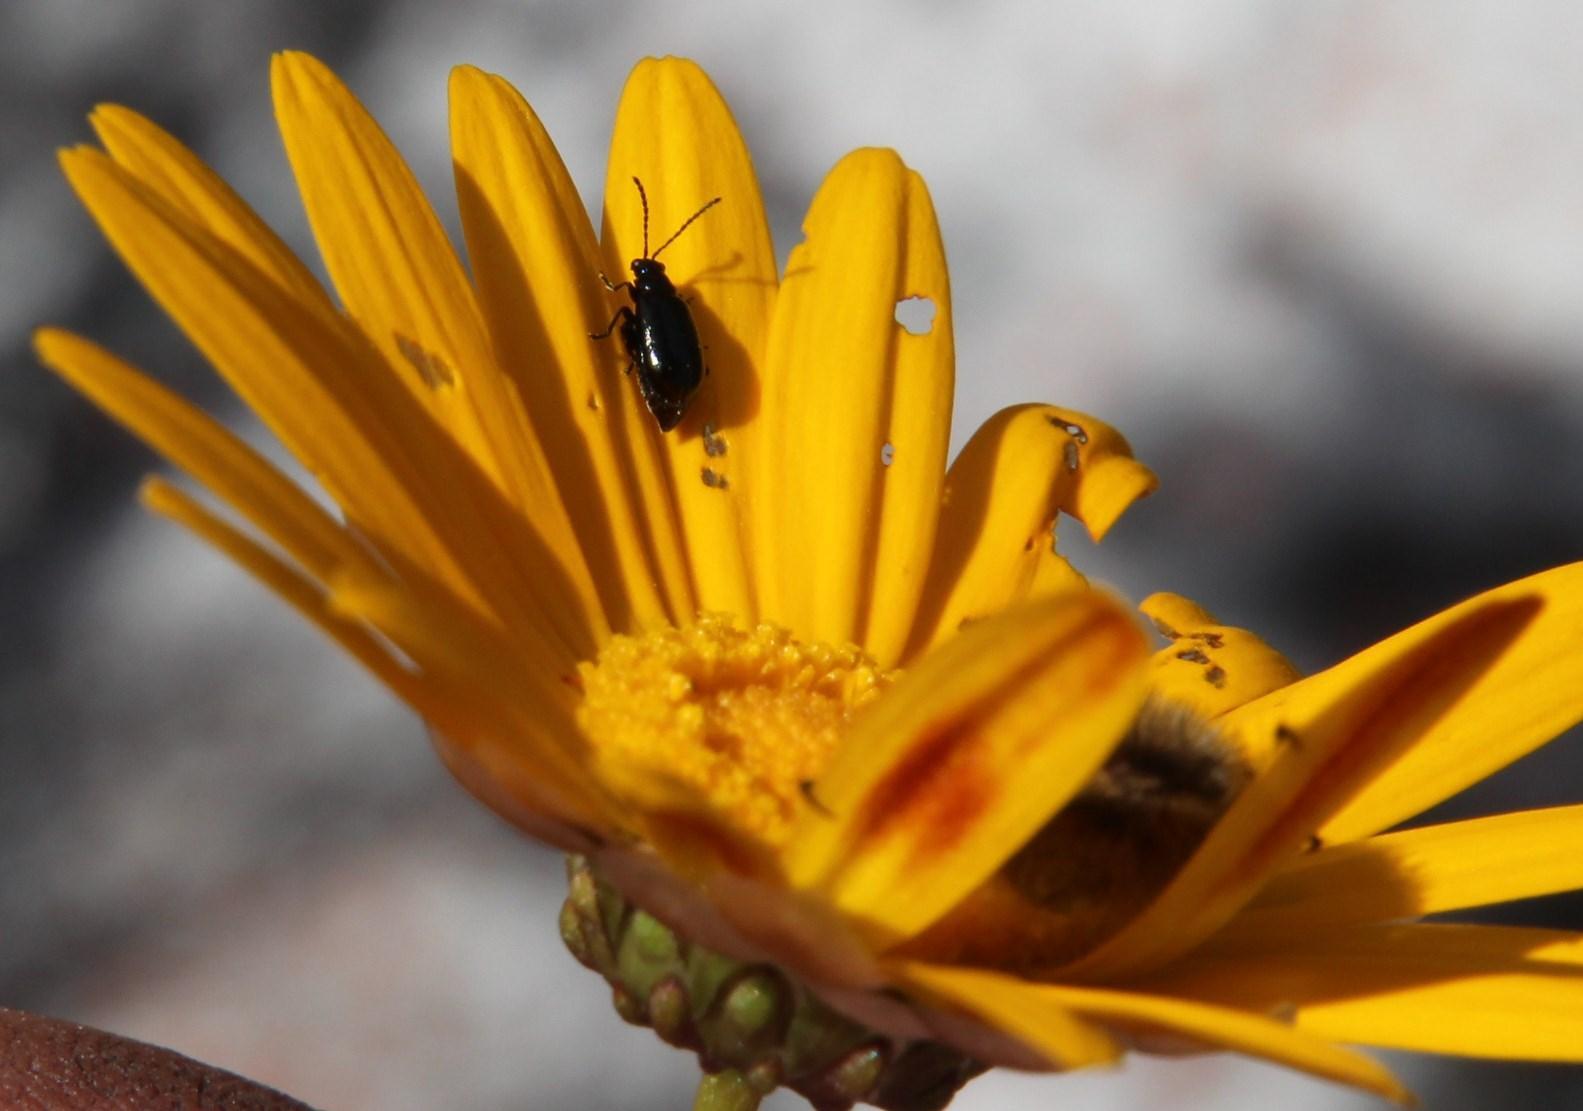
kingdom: Plantae
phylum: Tracheophyta
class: Magnoliopsida
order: Asterales
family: Asteraceae
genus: Ursinia
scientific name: Ursinia paleacea
